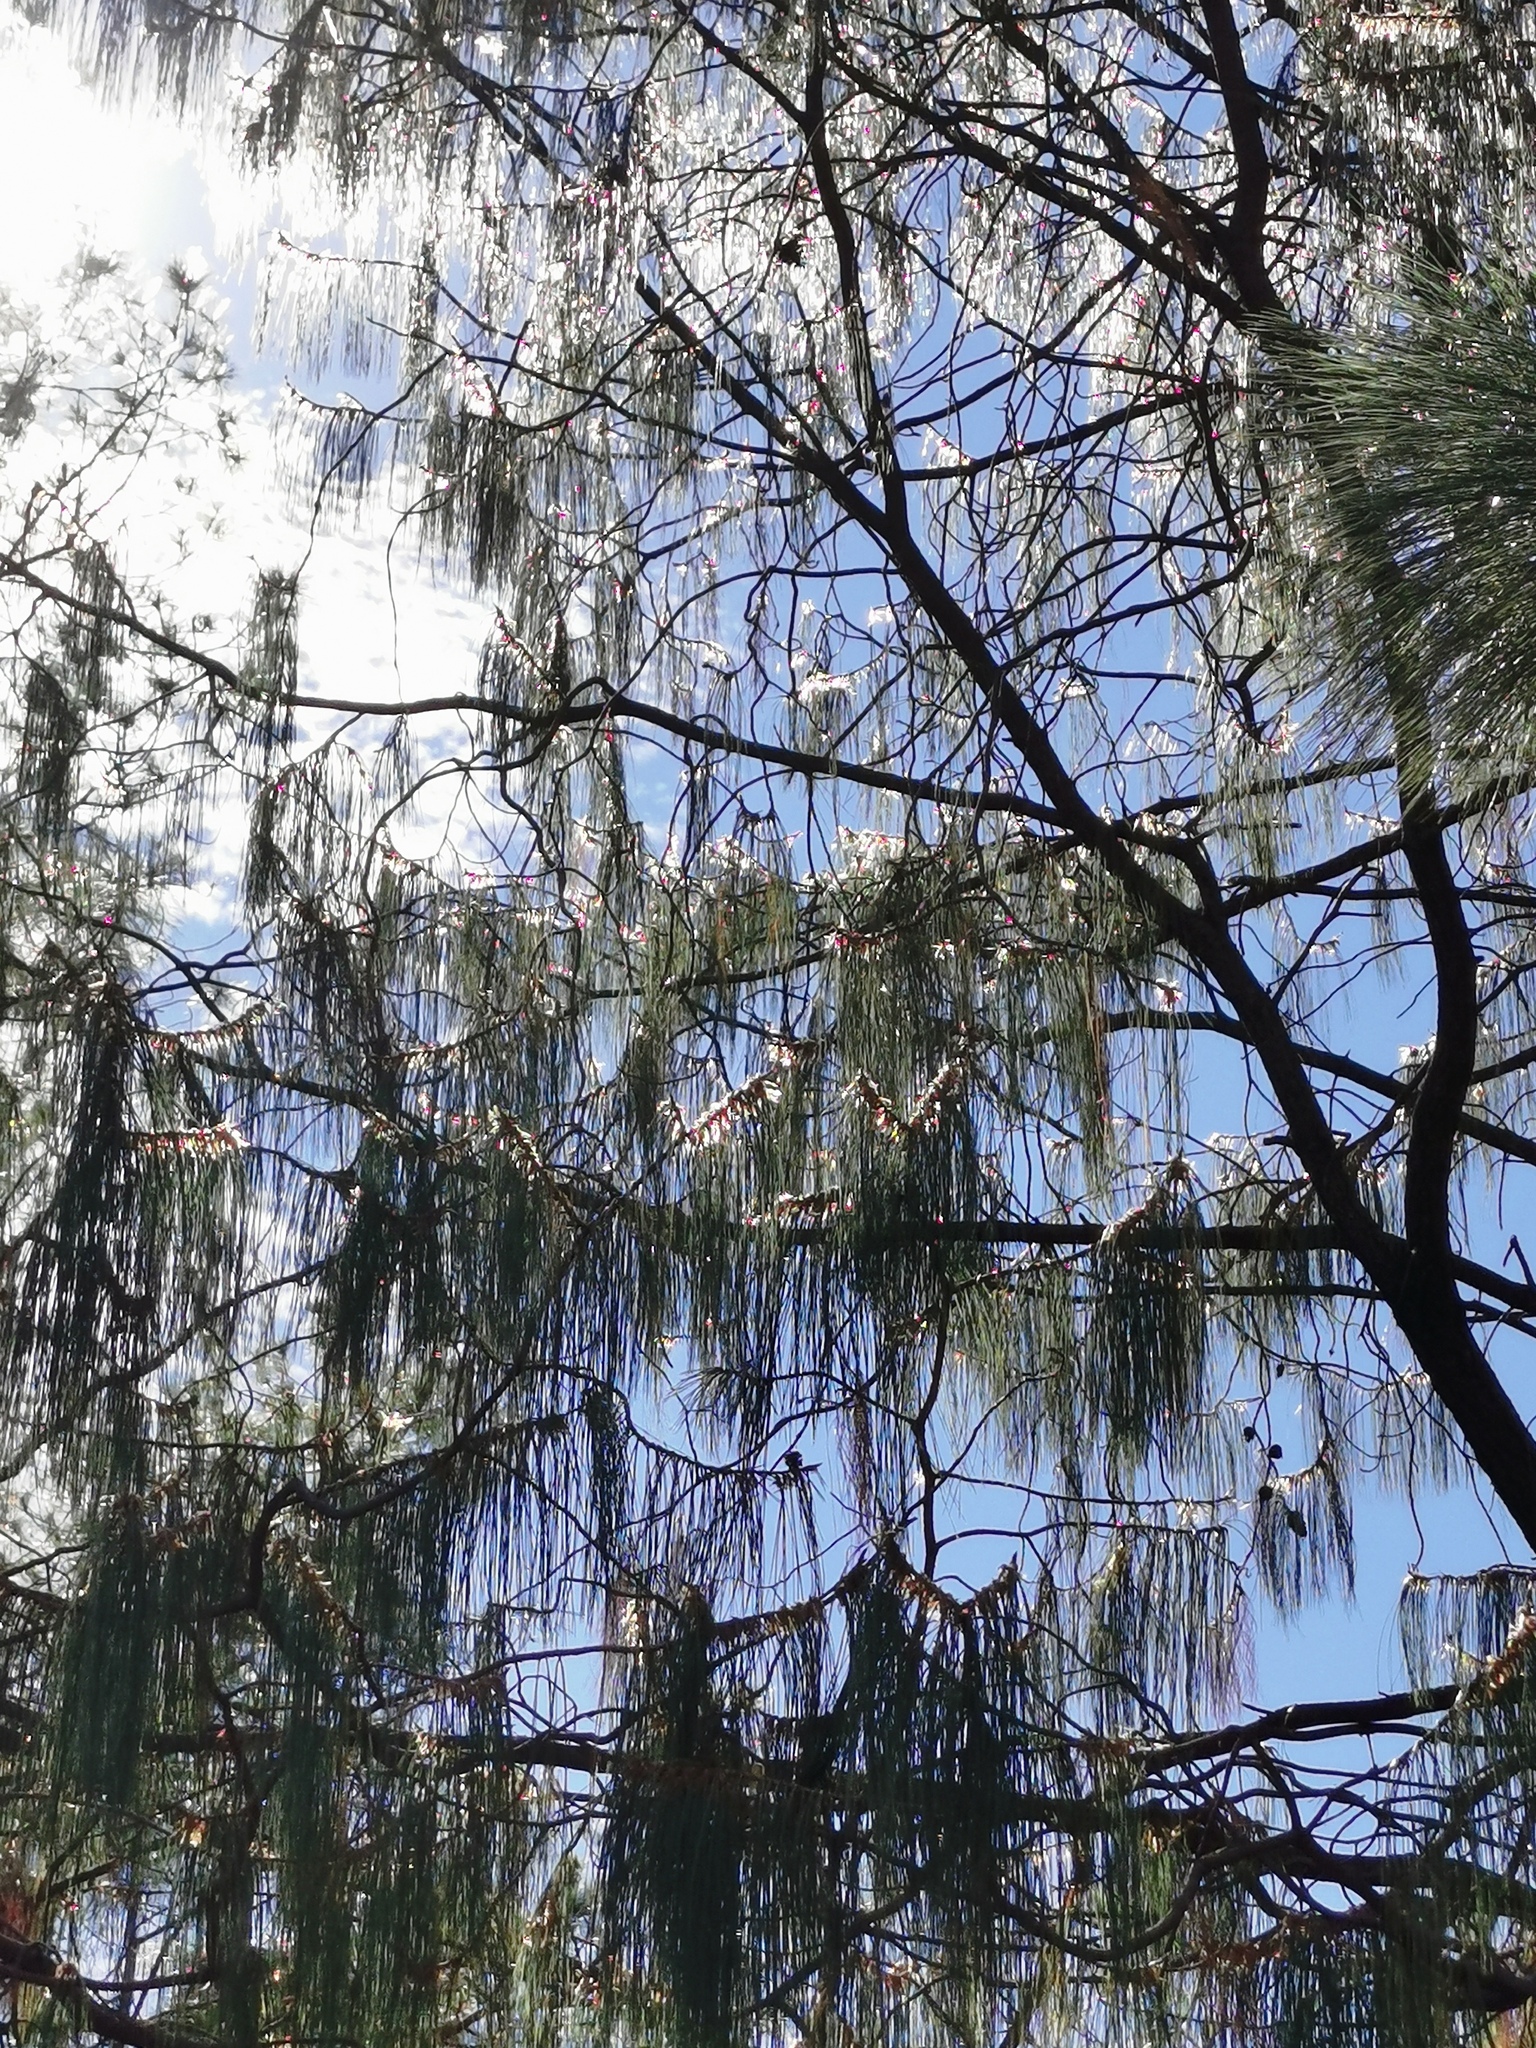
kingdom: Plantae
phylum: Tracheophyta
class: Pinopsida
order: Pinales
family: Pinaceae
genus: Pinus
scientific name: Pinus lumholtzii
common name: Lumholtz's pine
